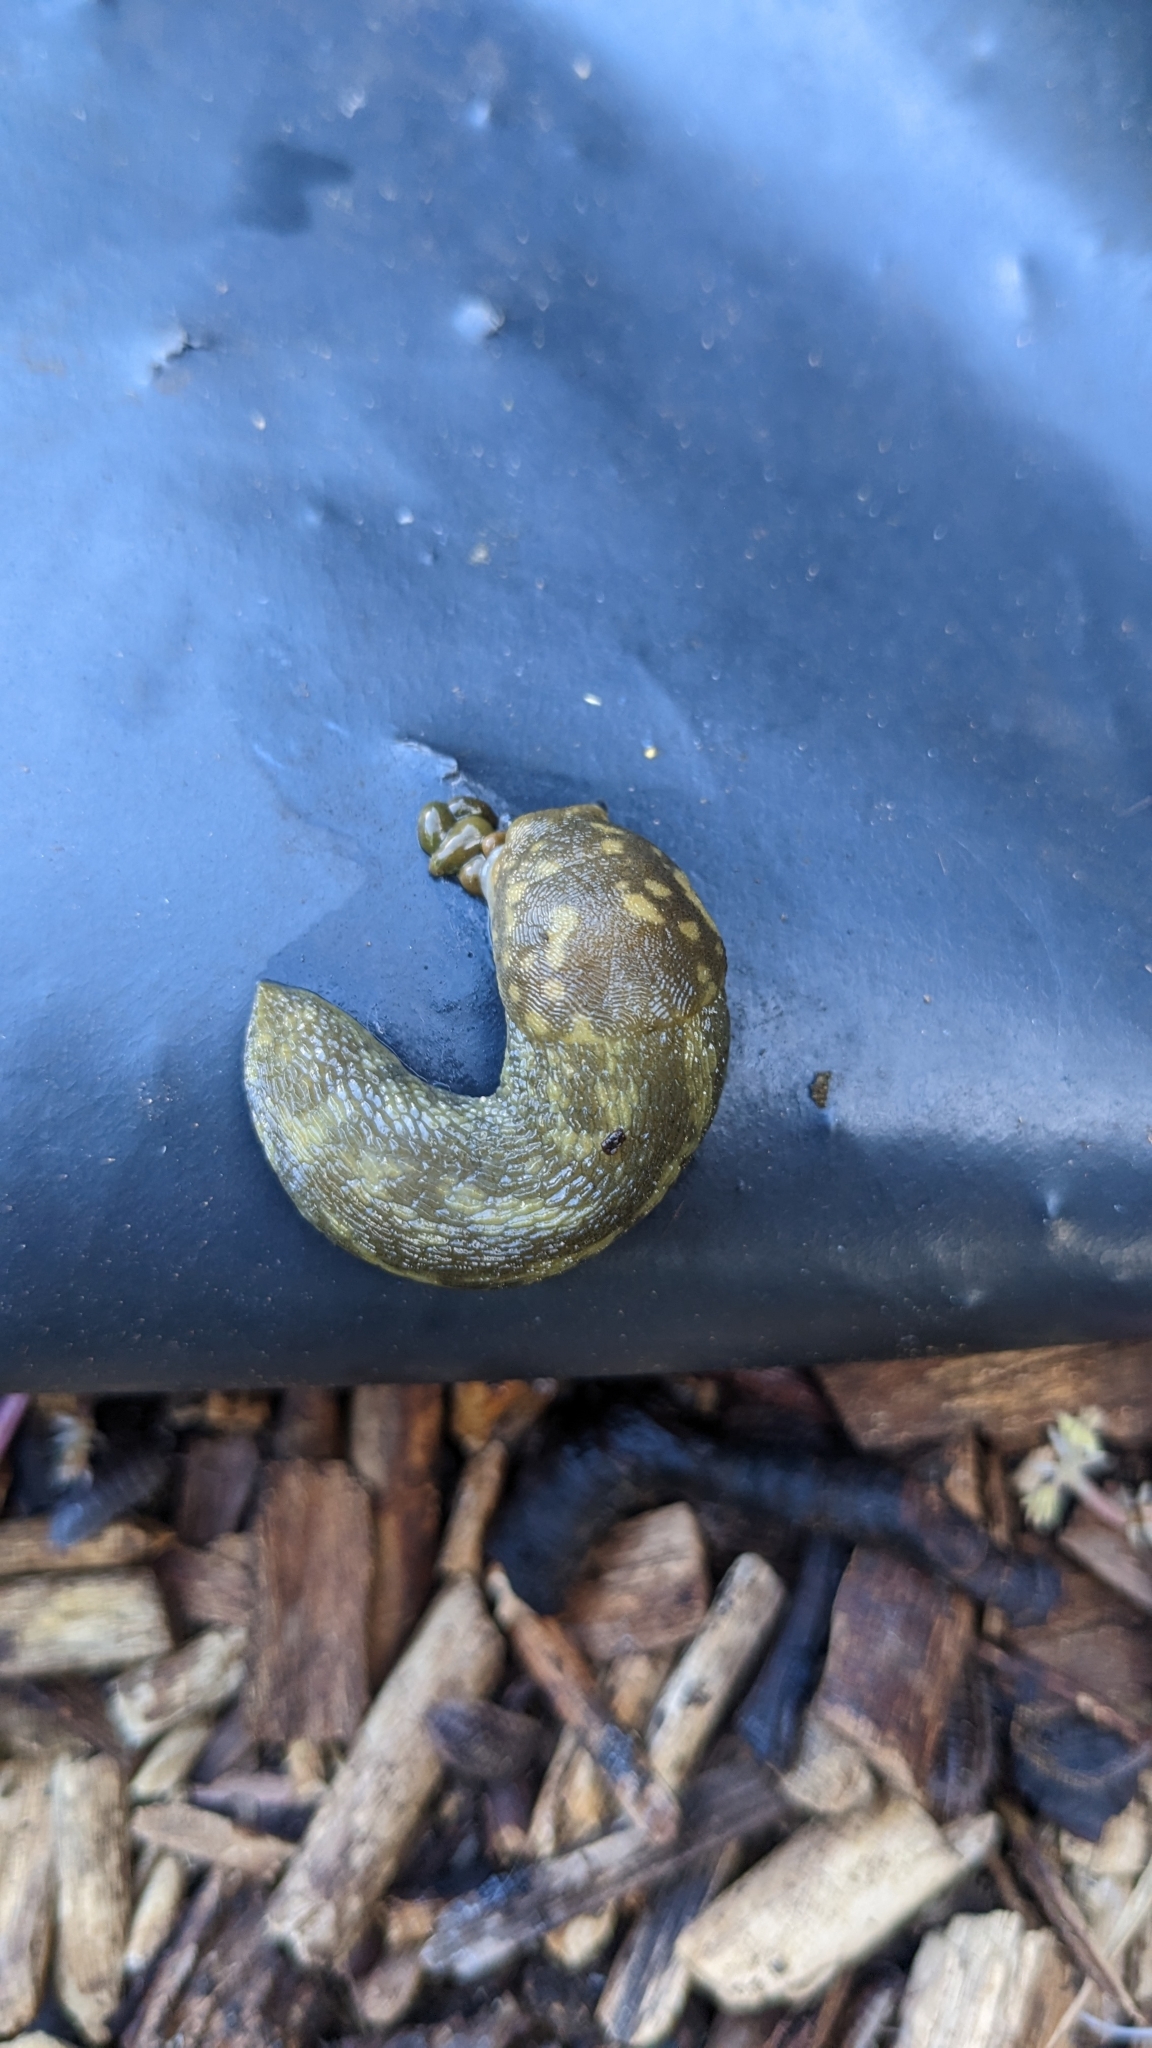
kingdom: Animalia
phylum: Mollusca
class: Gastropoda
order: Stylommatophora
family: Limacidae
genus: Limacus
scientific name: Limacus maculatus
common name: Irish yellow slug
